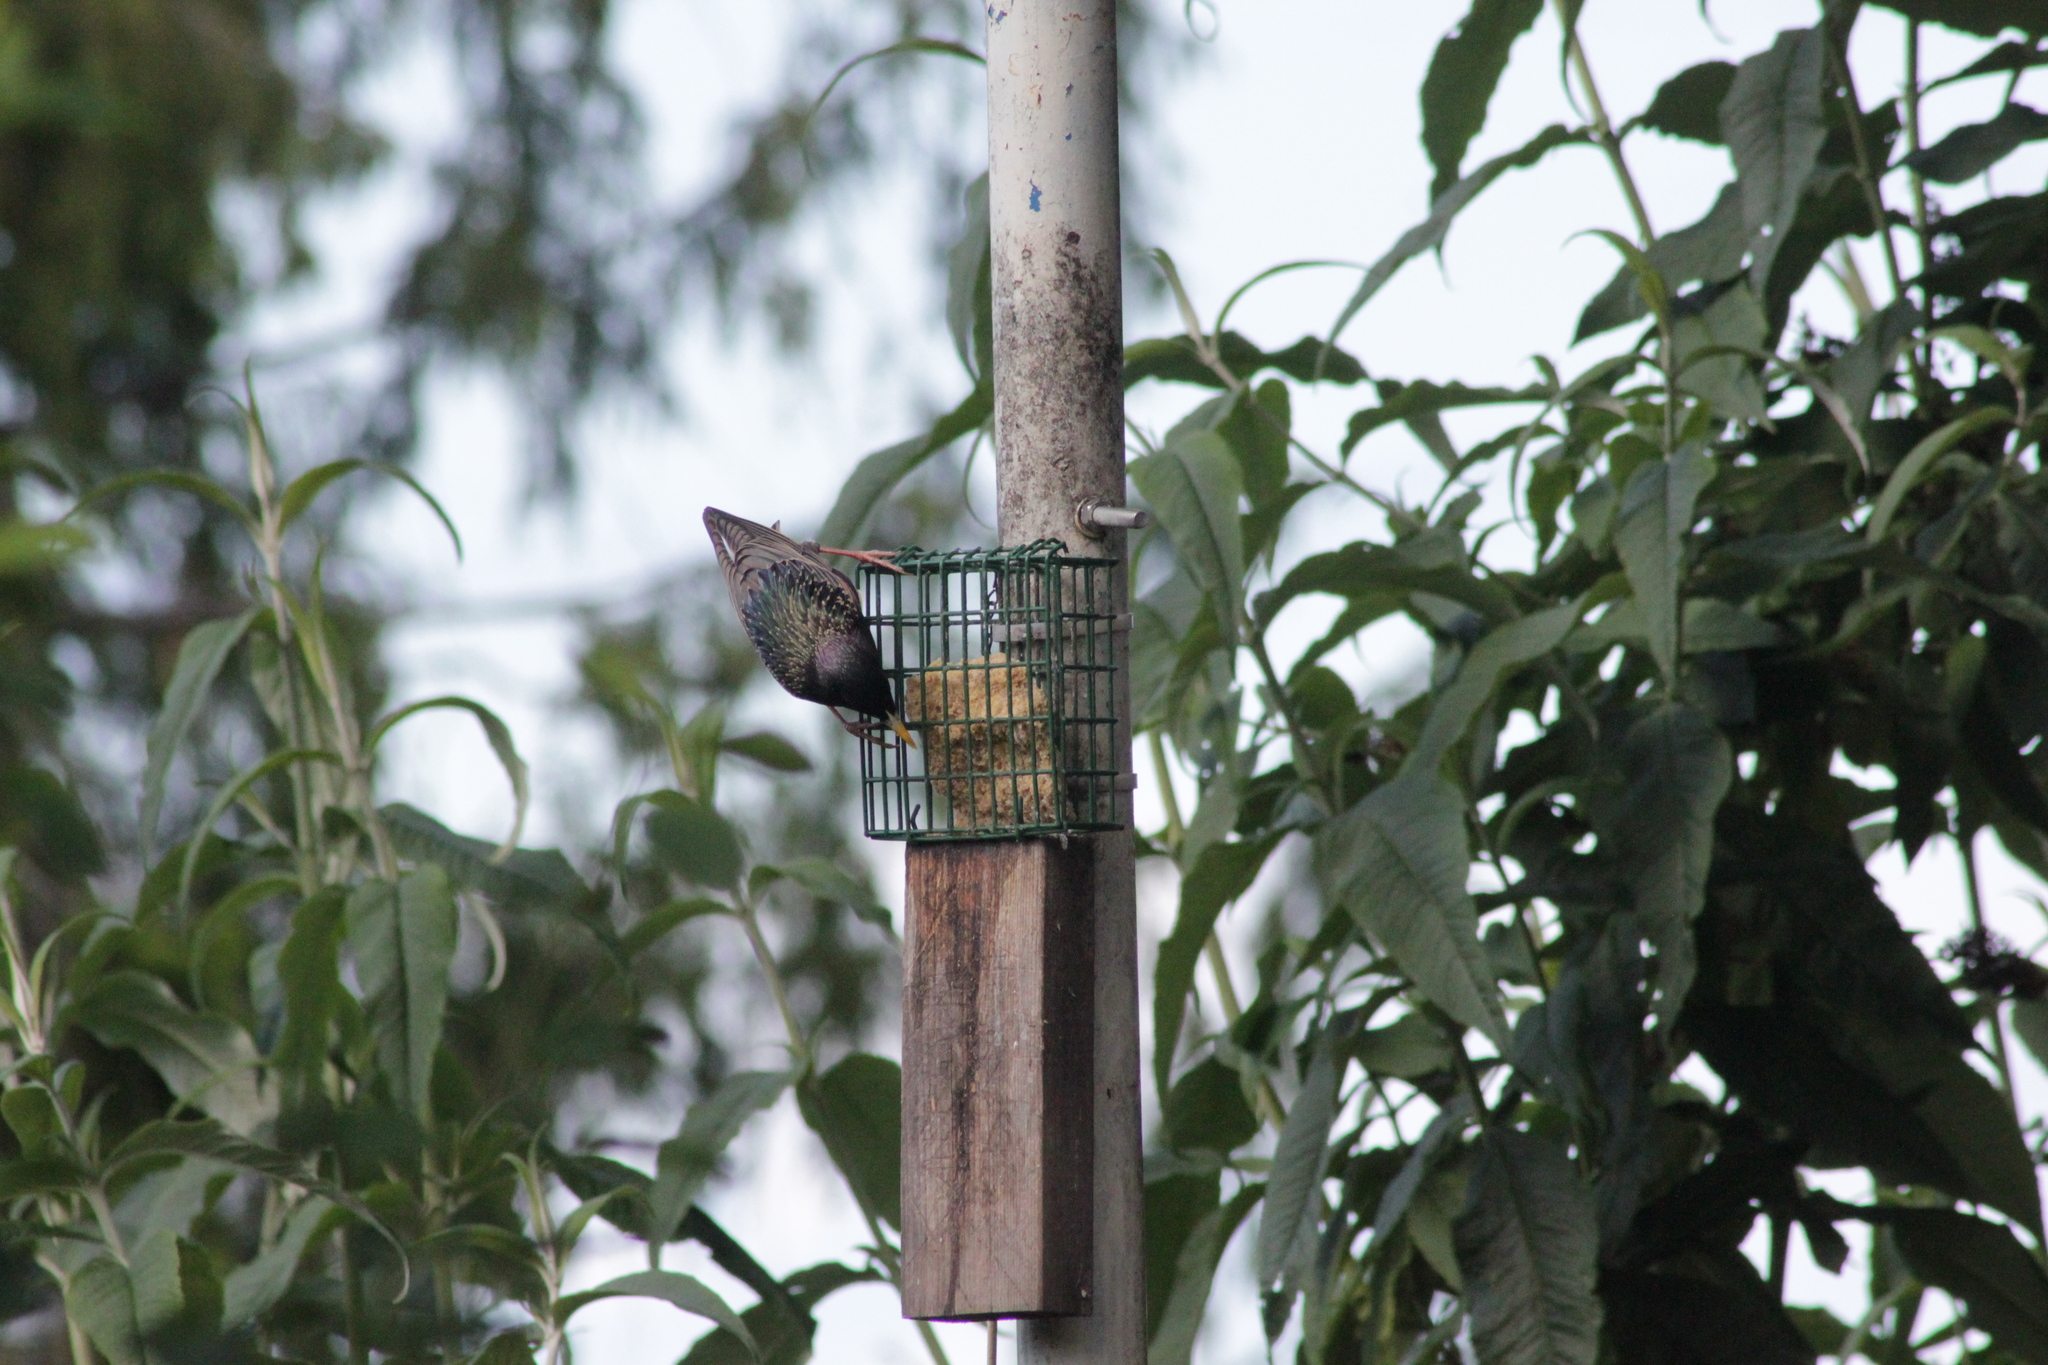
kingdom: Animalia
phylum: Chordata
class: Aves
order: Passeriformes
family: Sturnidae
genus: Sturnus
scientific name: Sturnus vulgaris
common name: Common starling
